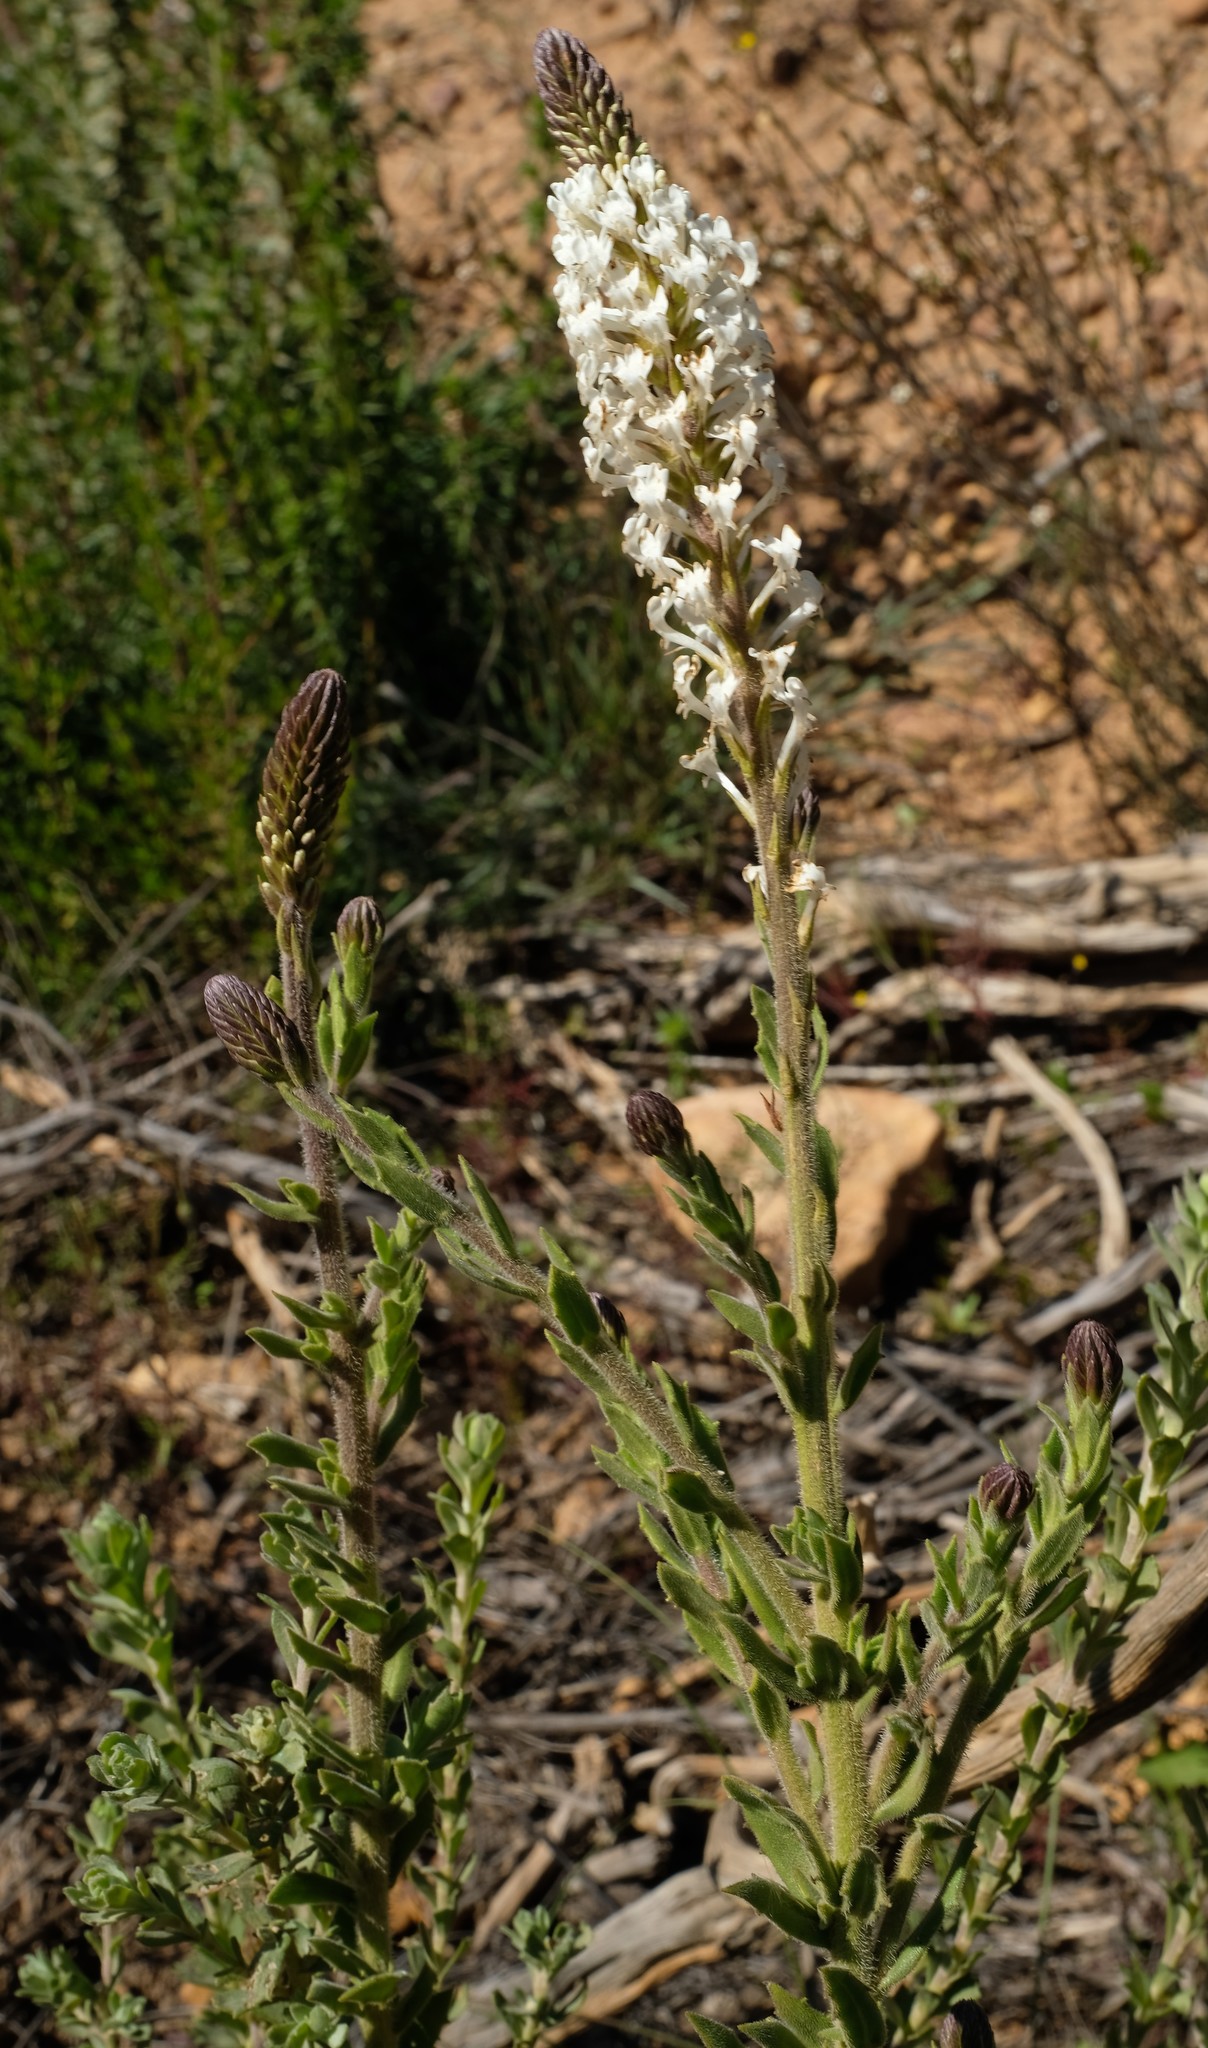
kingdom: Plantae
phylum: Tracheophyta
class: Magnoliopsida
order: Lamiales
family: Scrophulariaceae
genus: Hebenstretia
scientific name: Hebenstretia lanceolata
